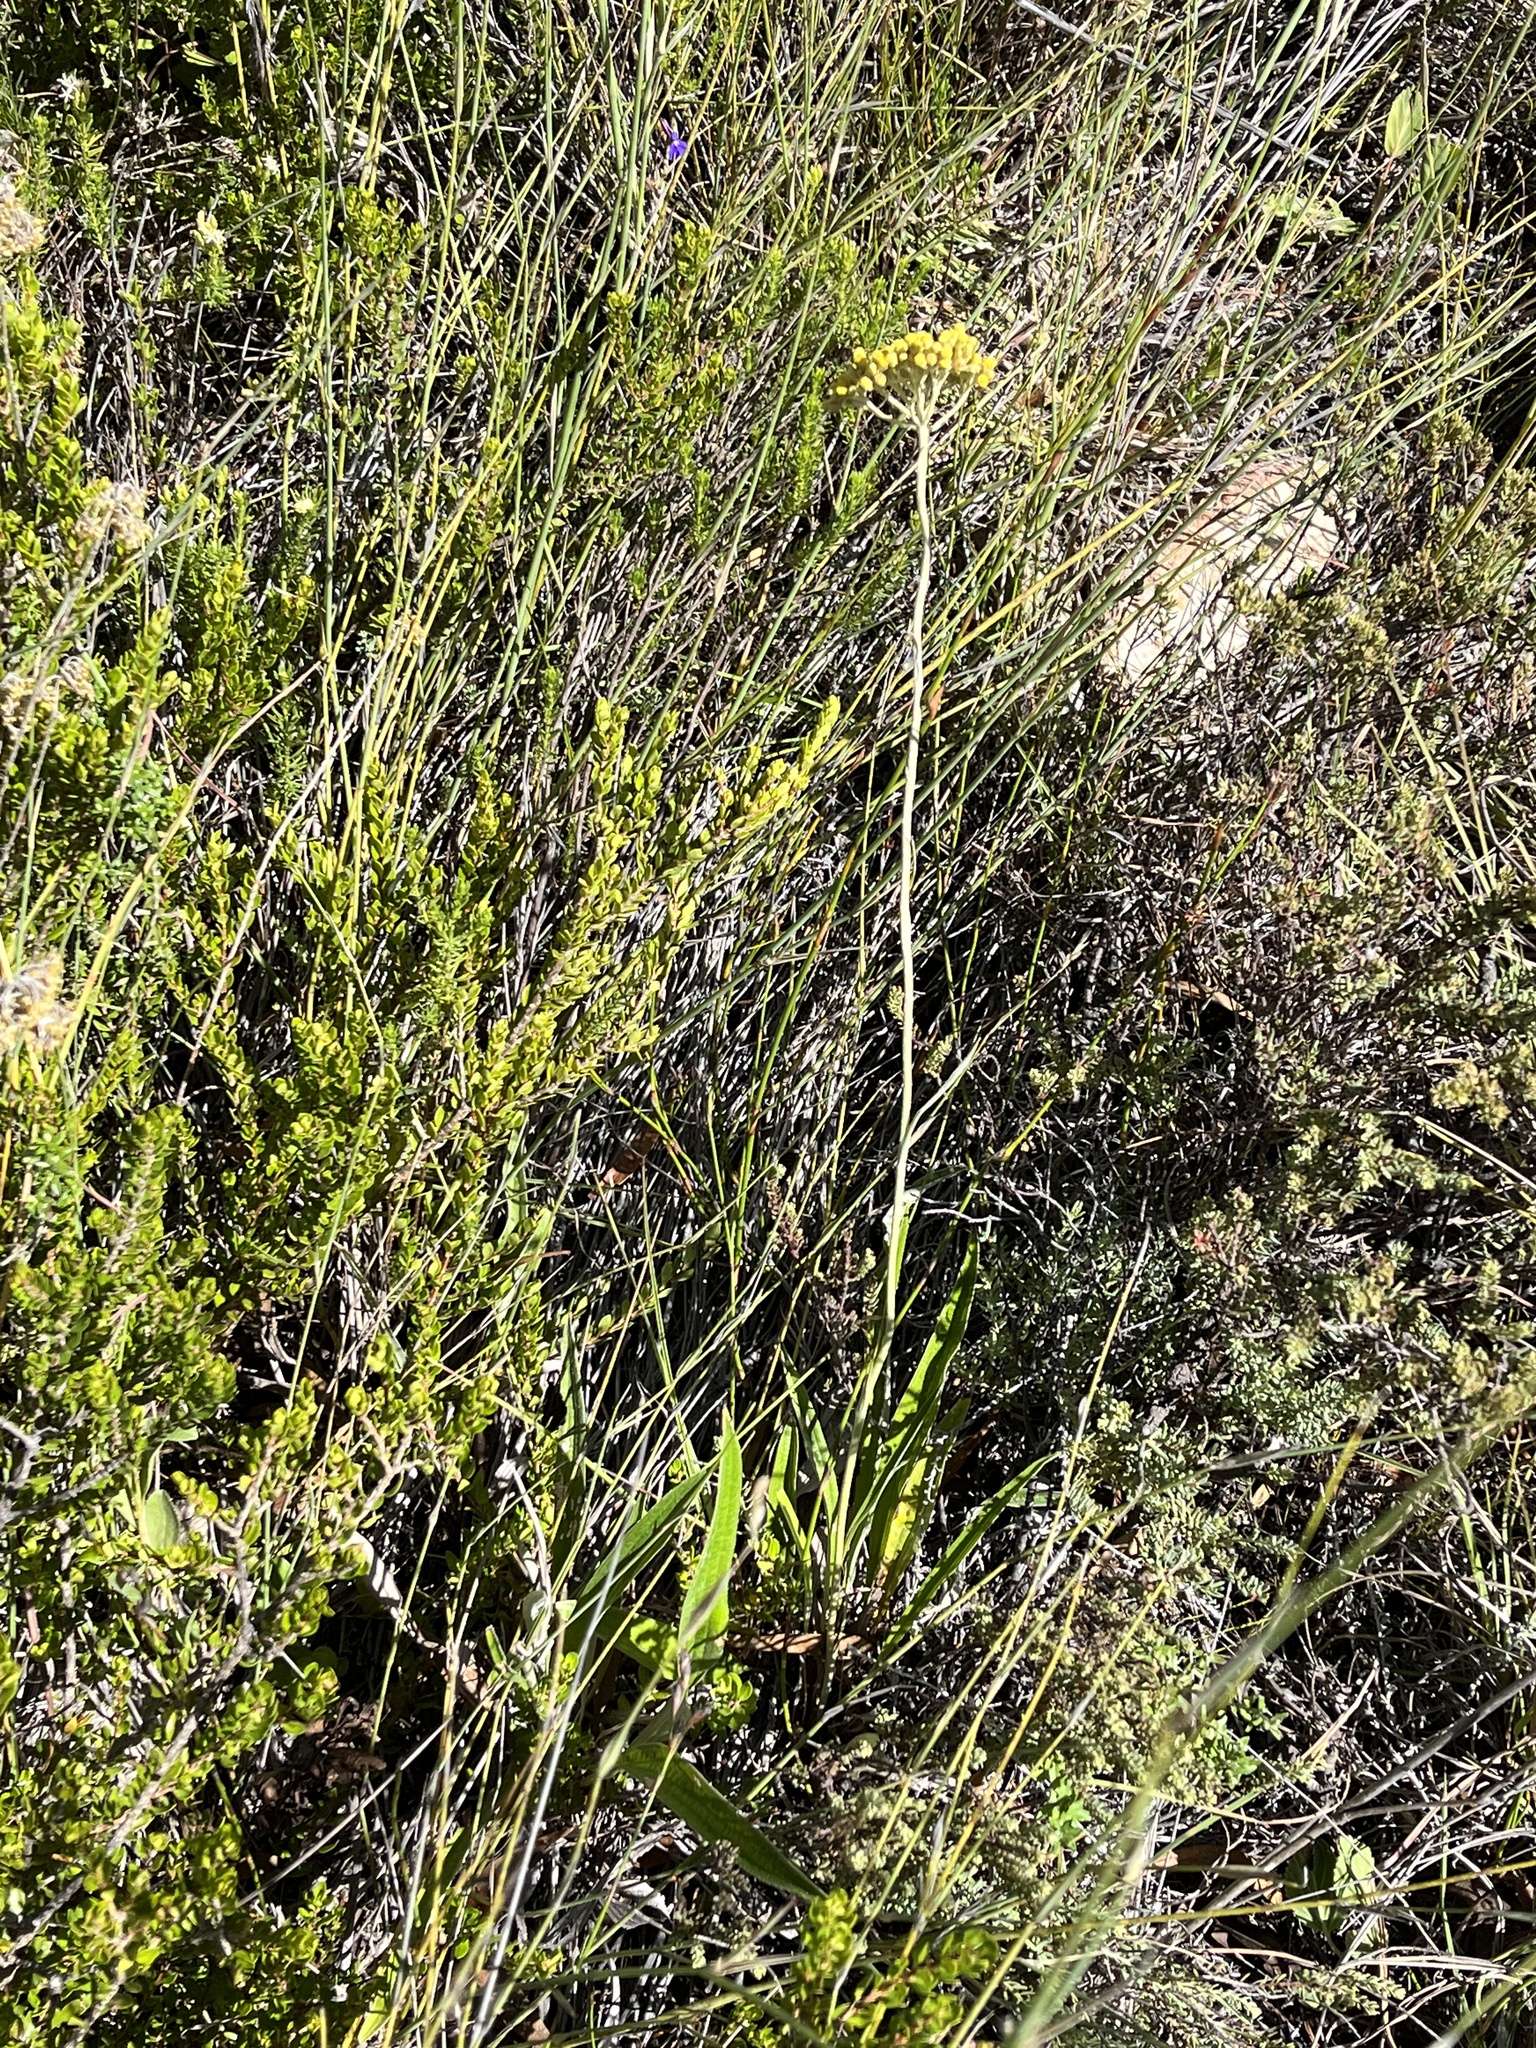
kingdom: Plantae
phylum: Tracheophyta
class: Magnoliopsida
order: Asterales
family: Asteraceae
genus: Helichrysum
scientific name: Helichrysum nudifolium
